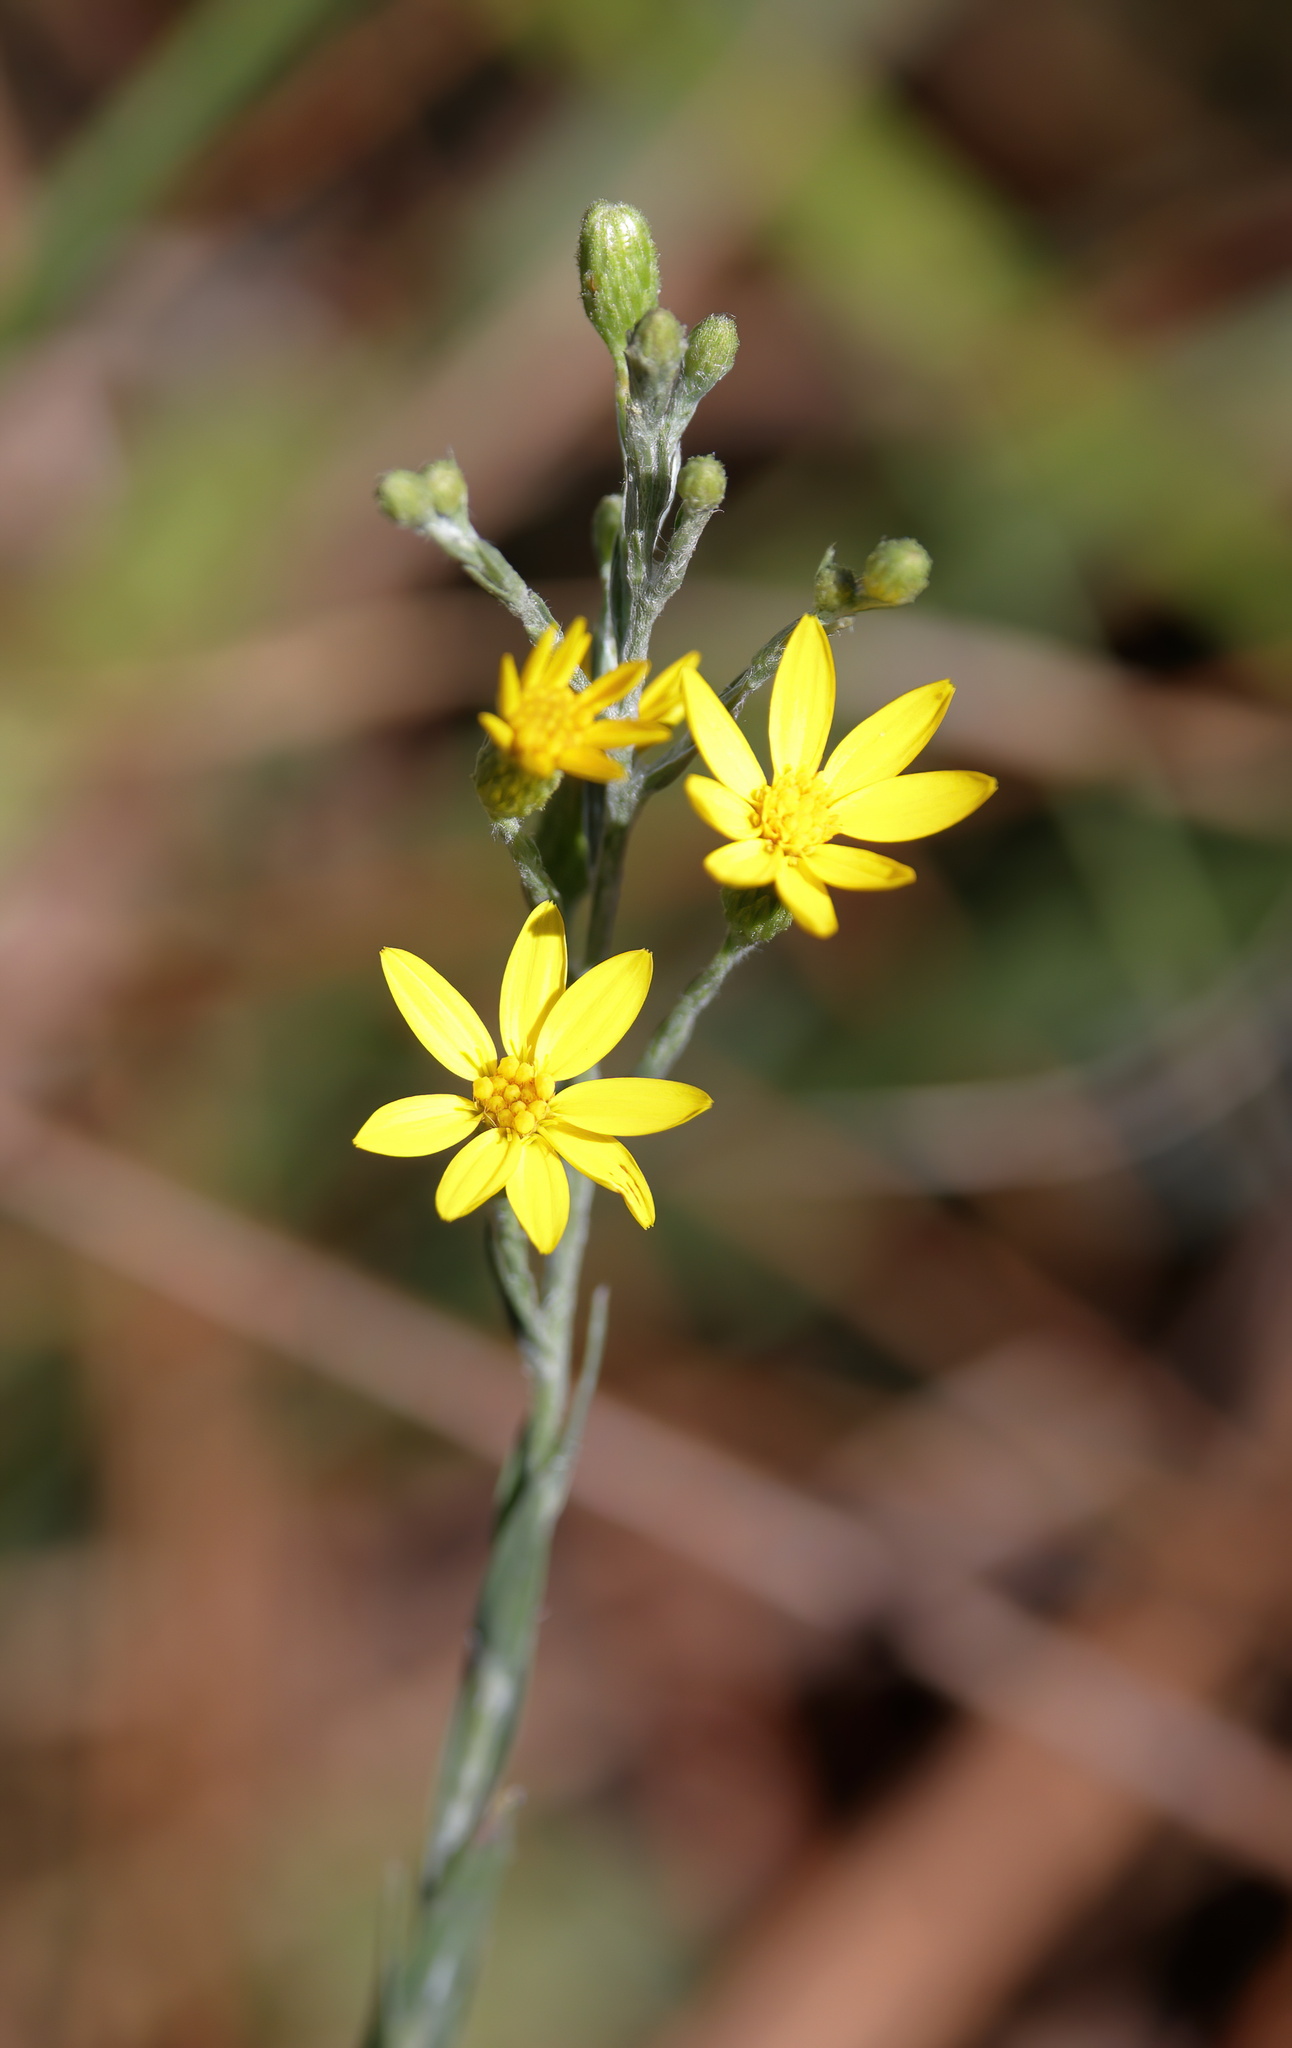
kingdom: Plantae
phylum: Tracheophyta
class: Magnoliopsida
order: Asterales
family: Asteraceae
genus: Pityopsis
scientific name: Pityopsis graminifolia
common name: Grass-leaf golden-aster
